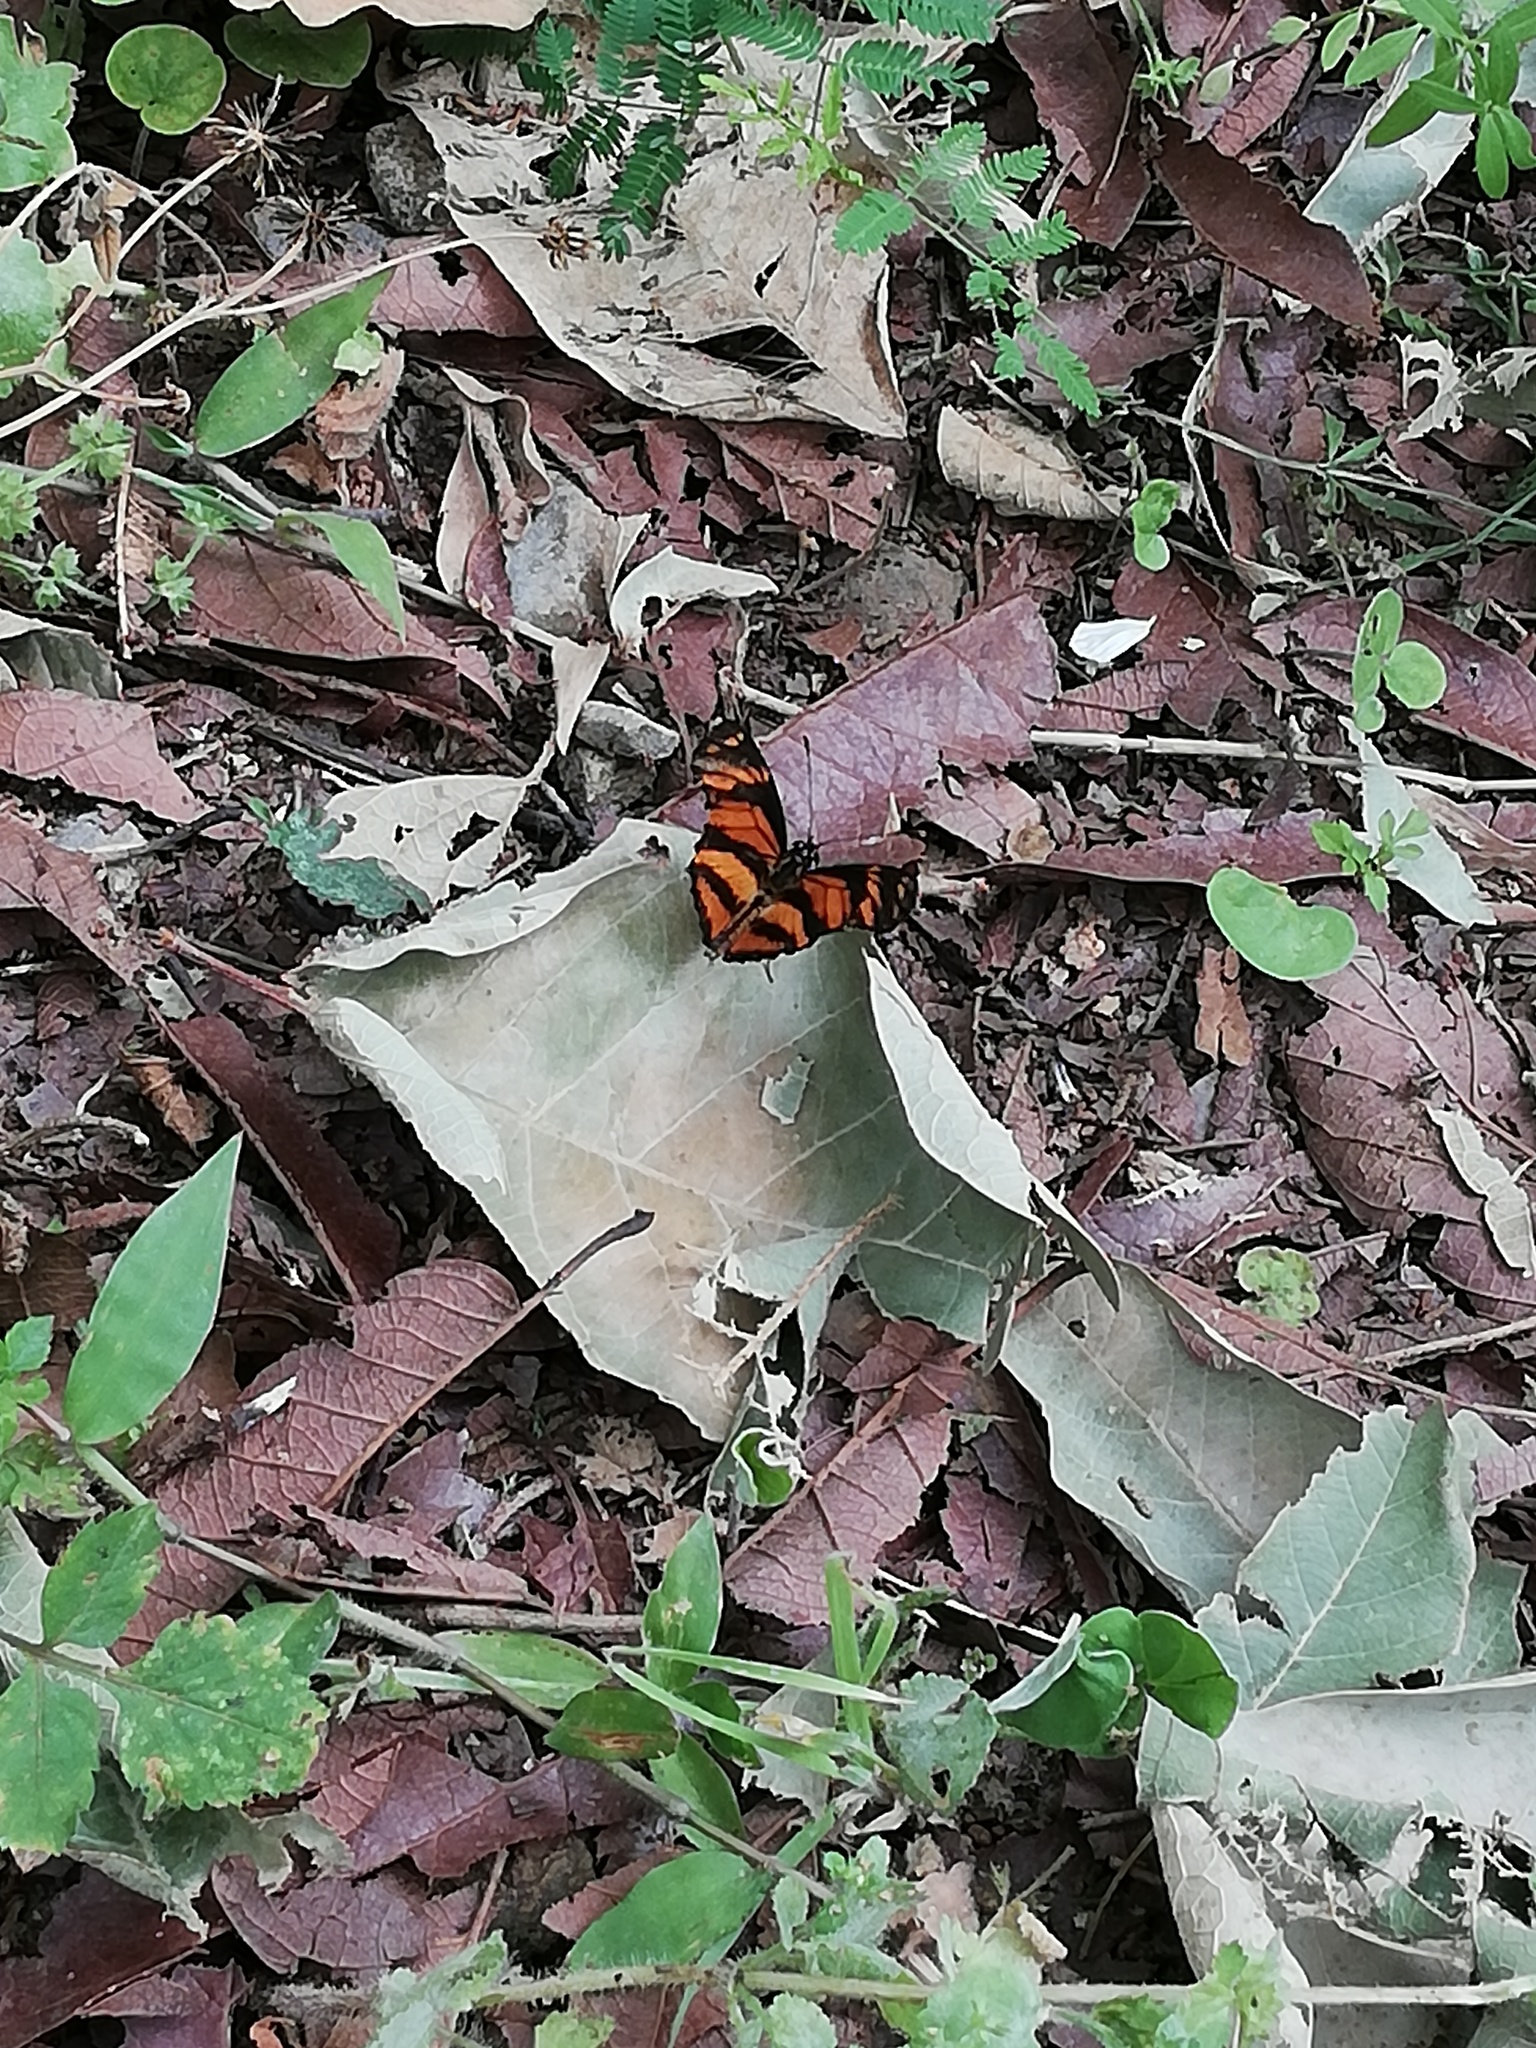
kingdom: Animalia
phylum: Arthropoda
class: Insecta
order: Lepidoptera
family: Nymphalidae
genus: Eresia
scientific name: Eresia phillyra
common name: Longwing crescent
